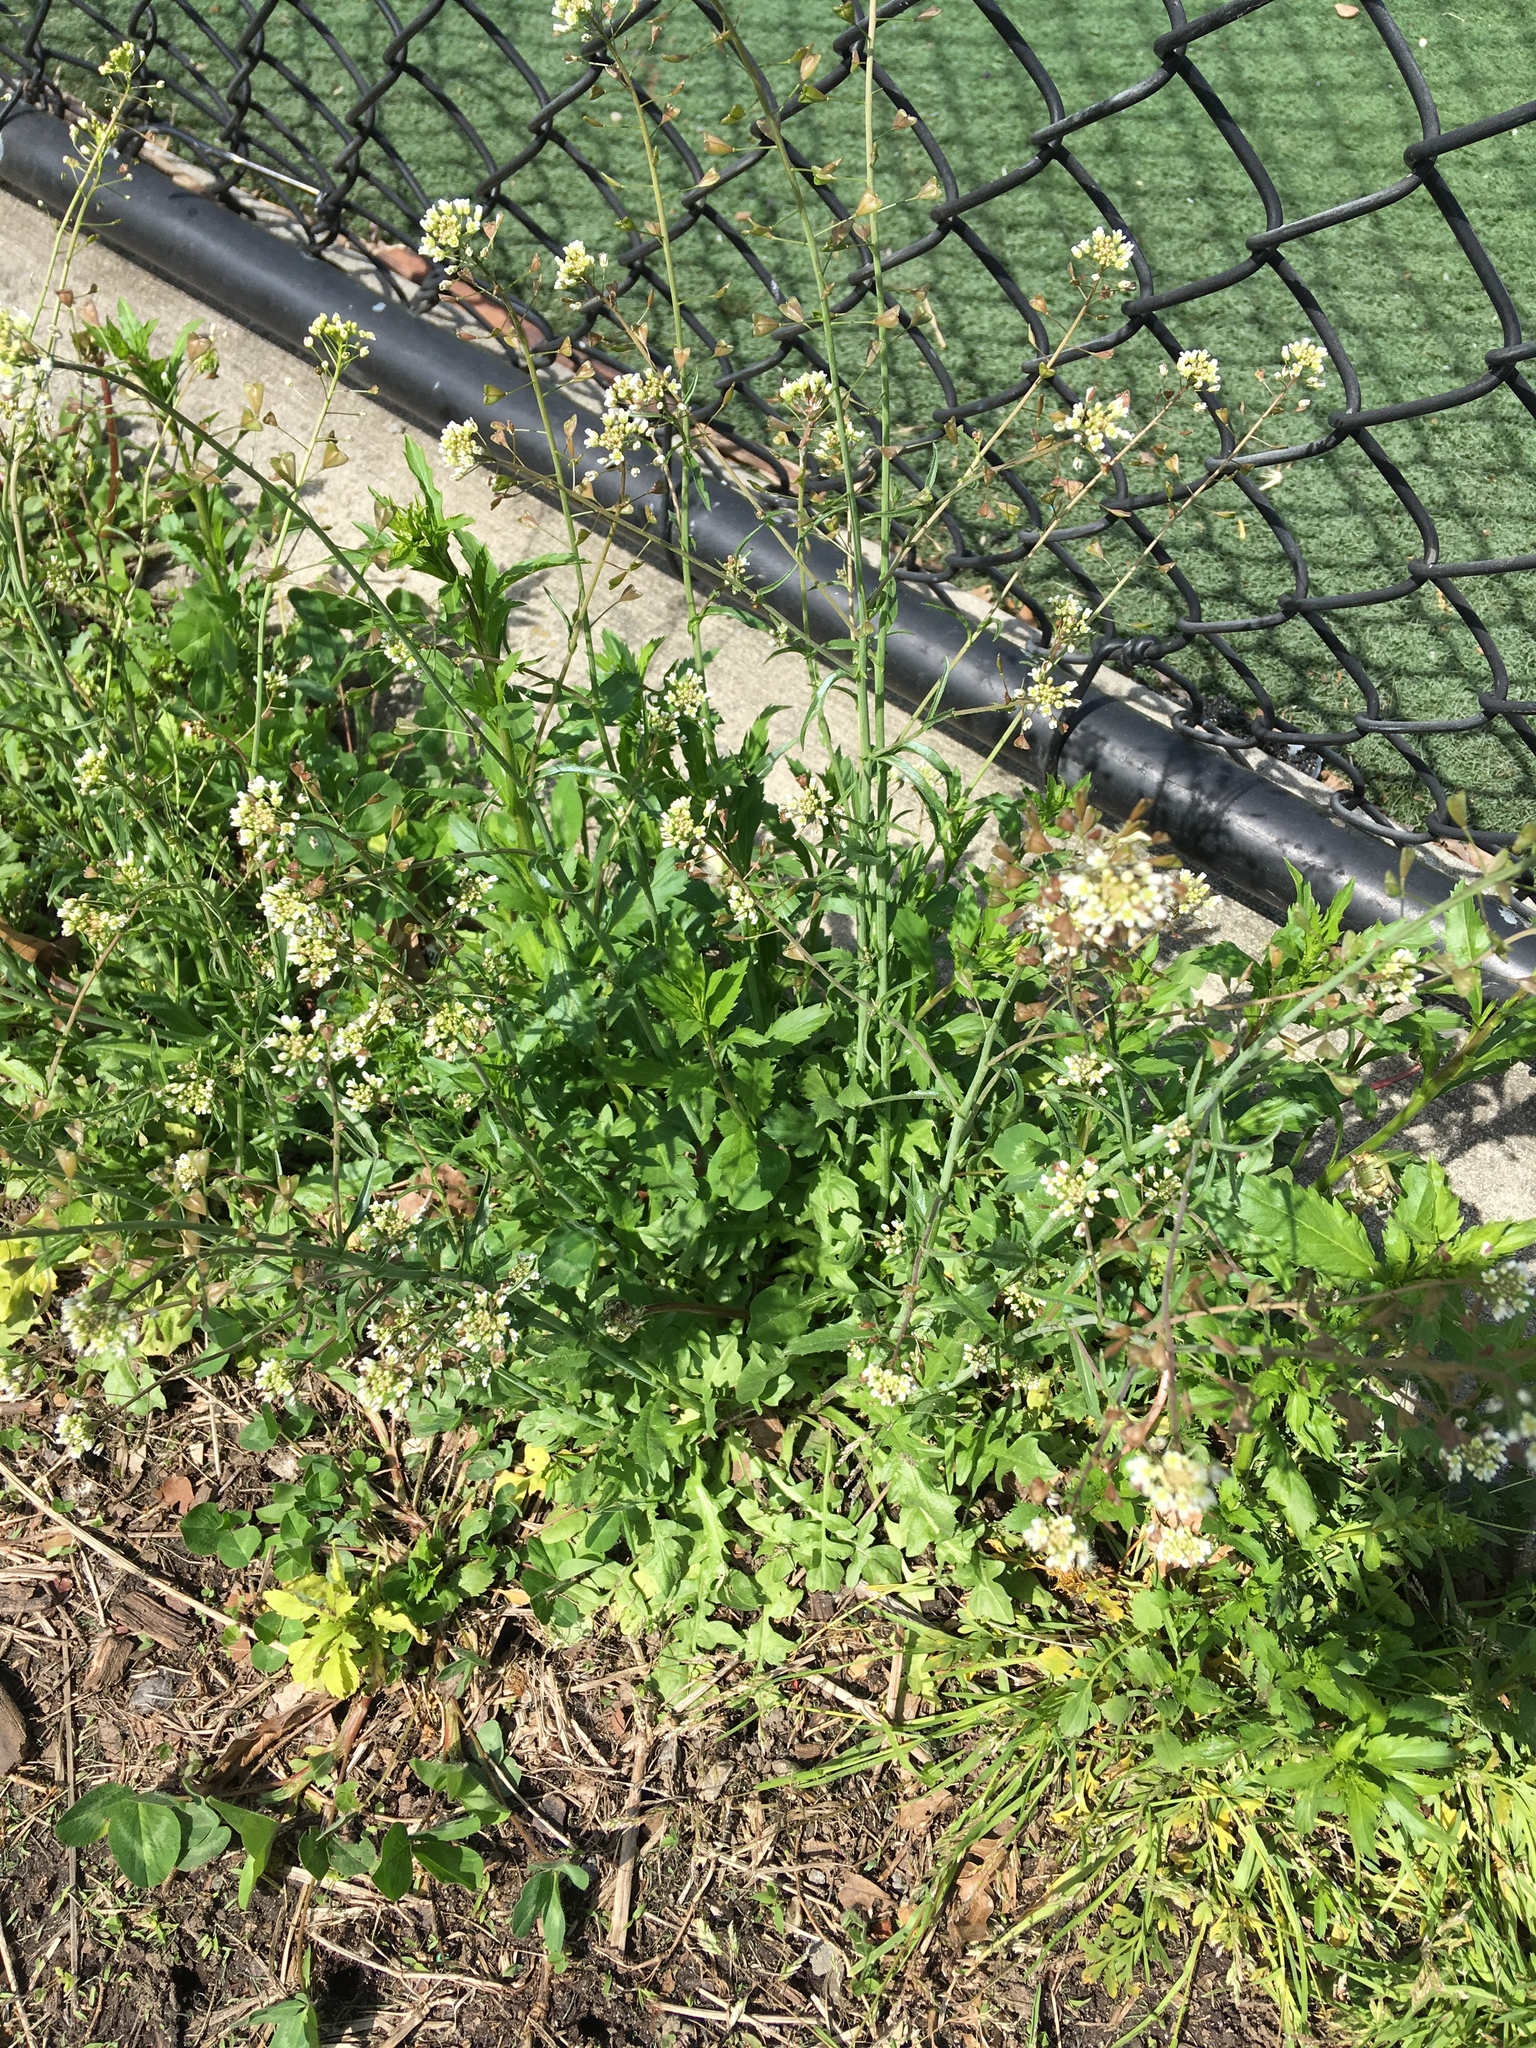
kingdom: Plantae
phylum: Tracheophyta
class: Magnoliopsida
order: Brassicales
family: Brassicaceae
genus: Capsella
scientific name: Capsella bursa-pastoris
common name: Shepherd's purse
